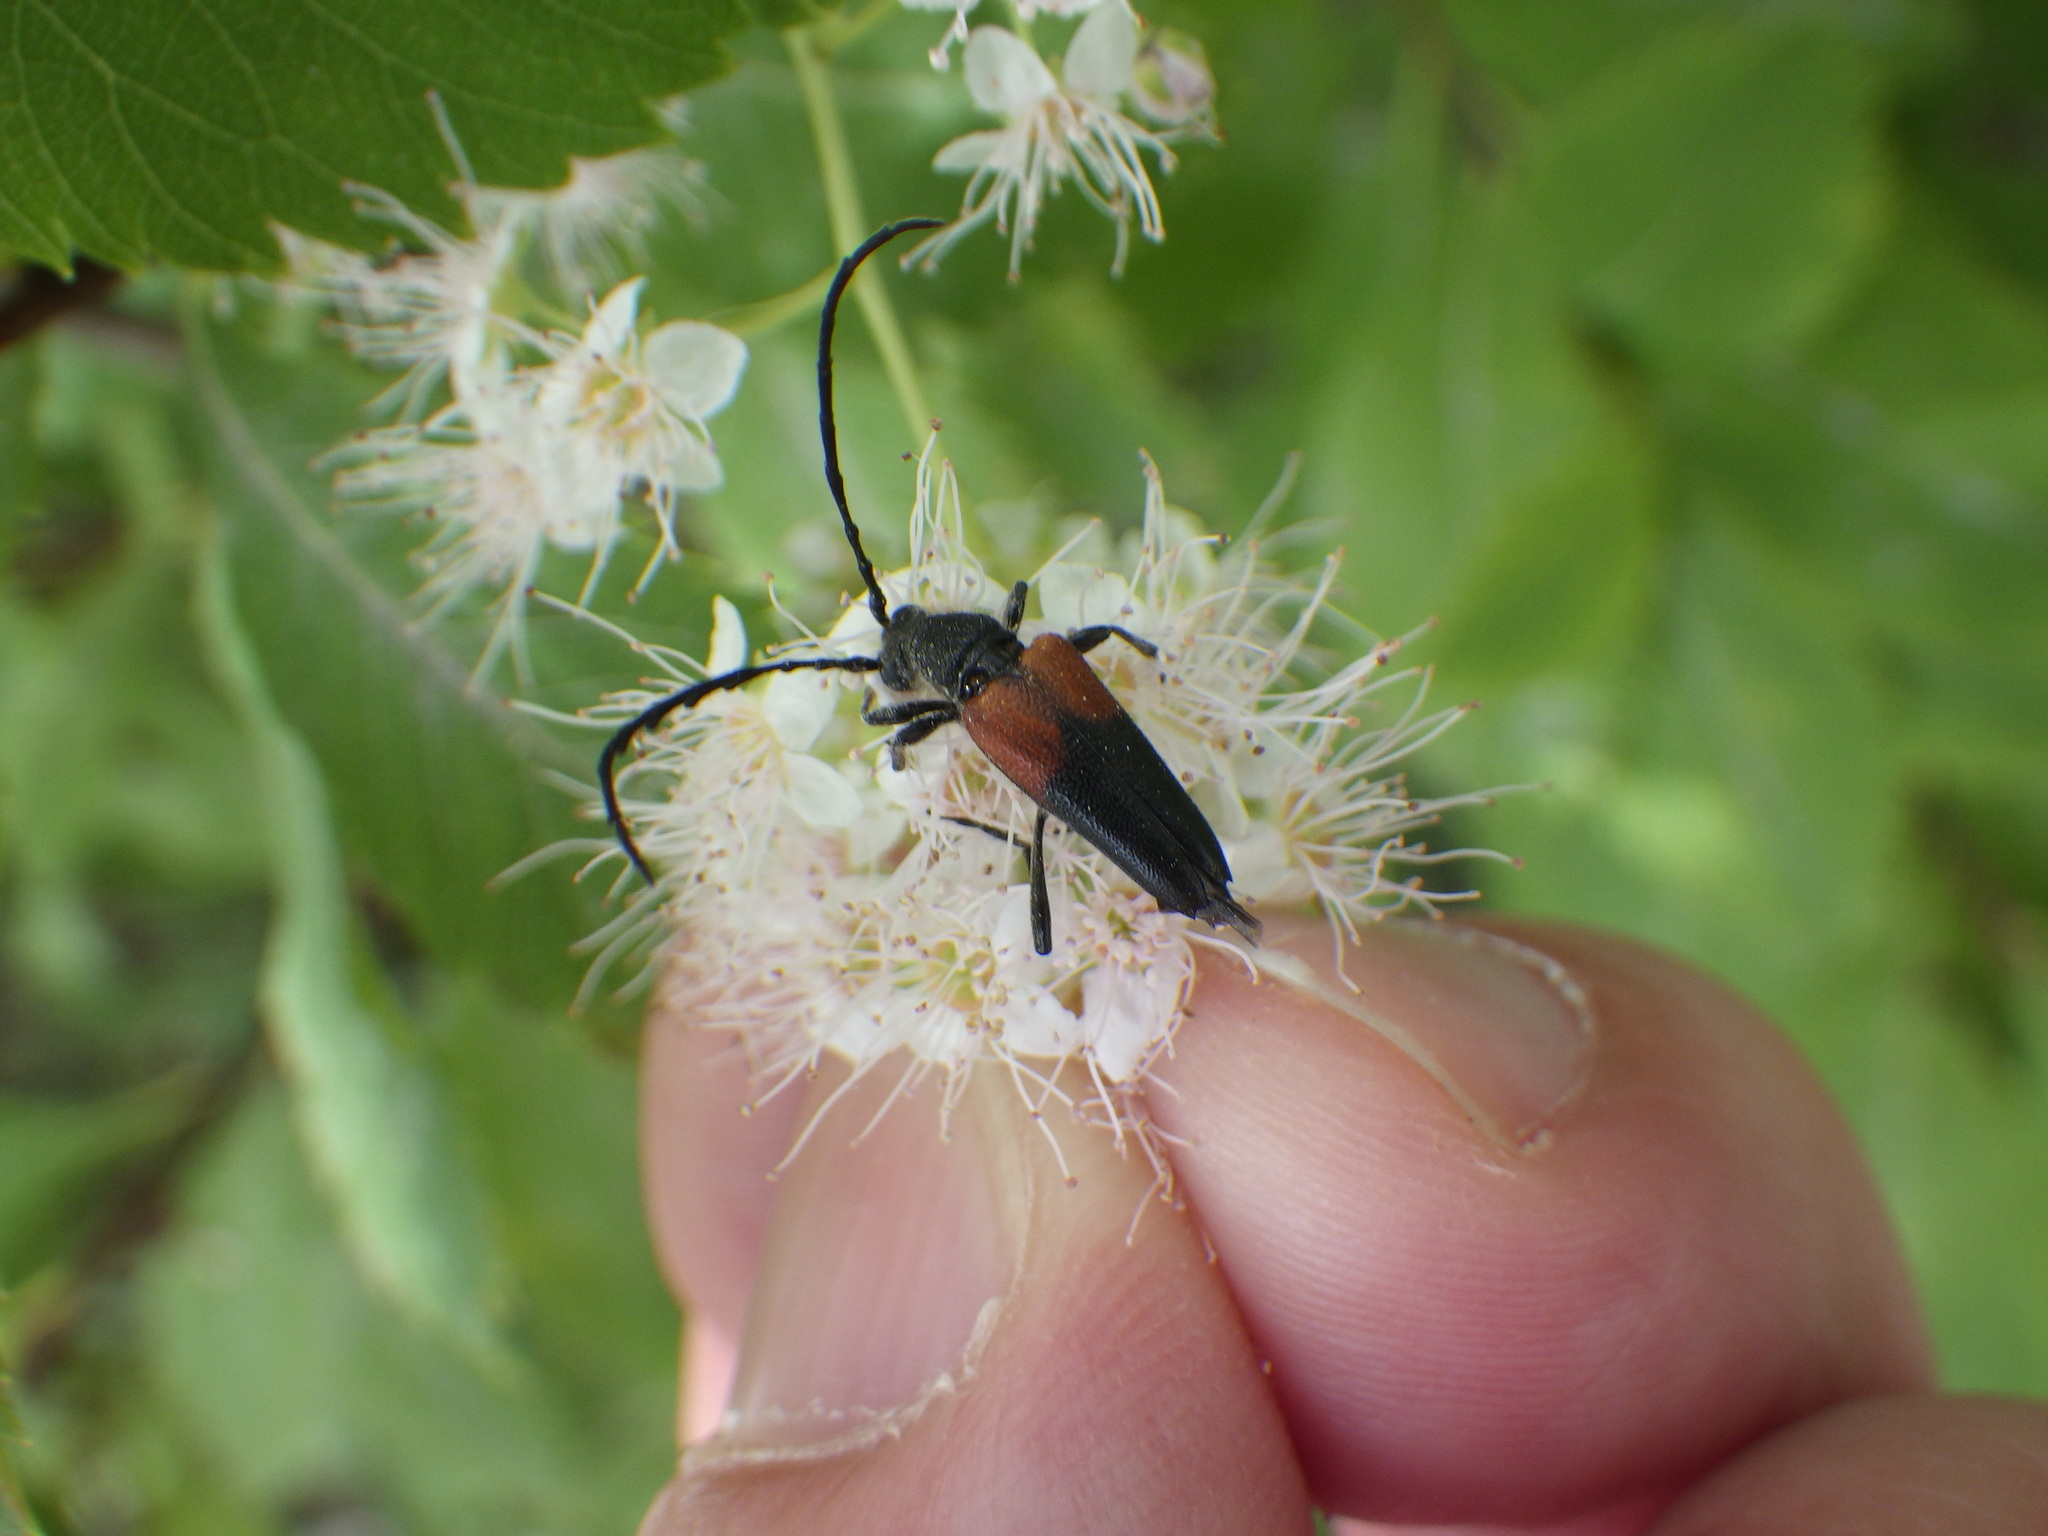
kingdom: Animalia
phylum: Arthropoda
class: Insecta
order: Coleoptera
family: Cerambycidae
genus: Stictoleptura
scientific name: Stictoleptura canadensis
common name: Red-shouldered pine borer
